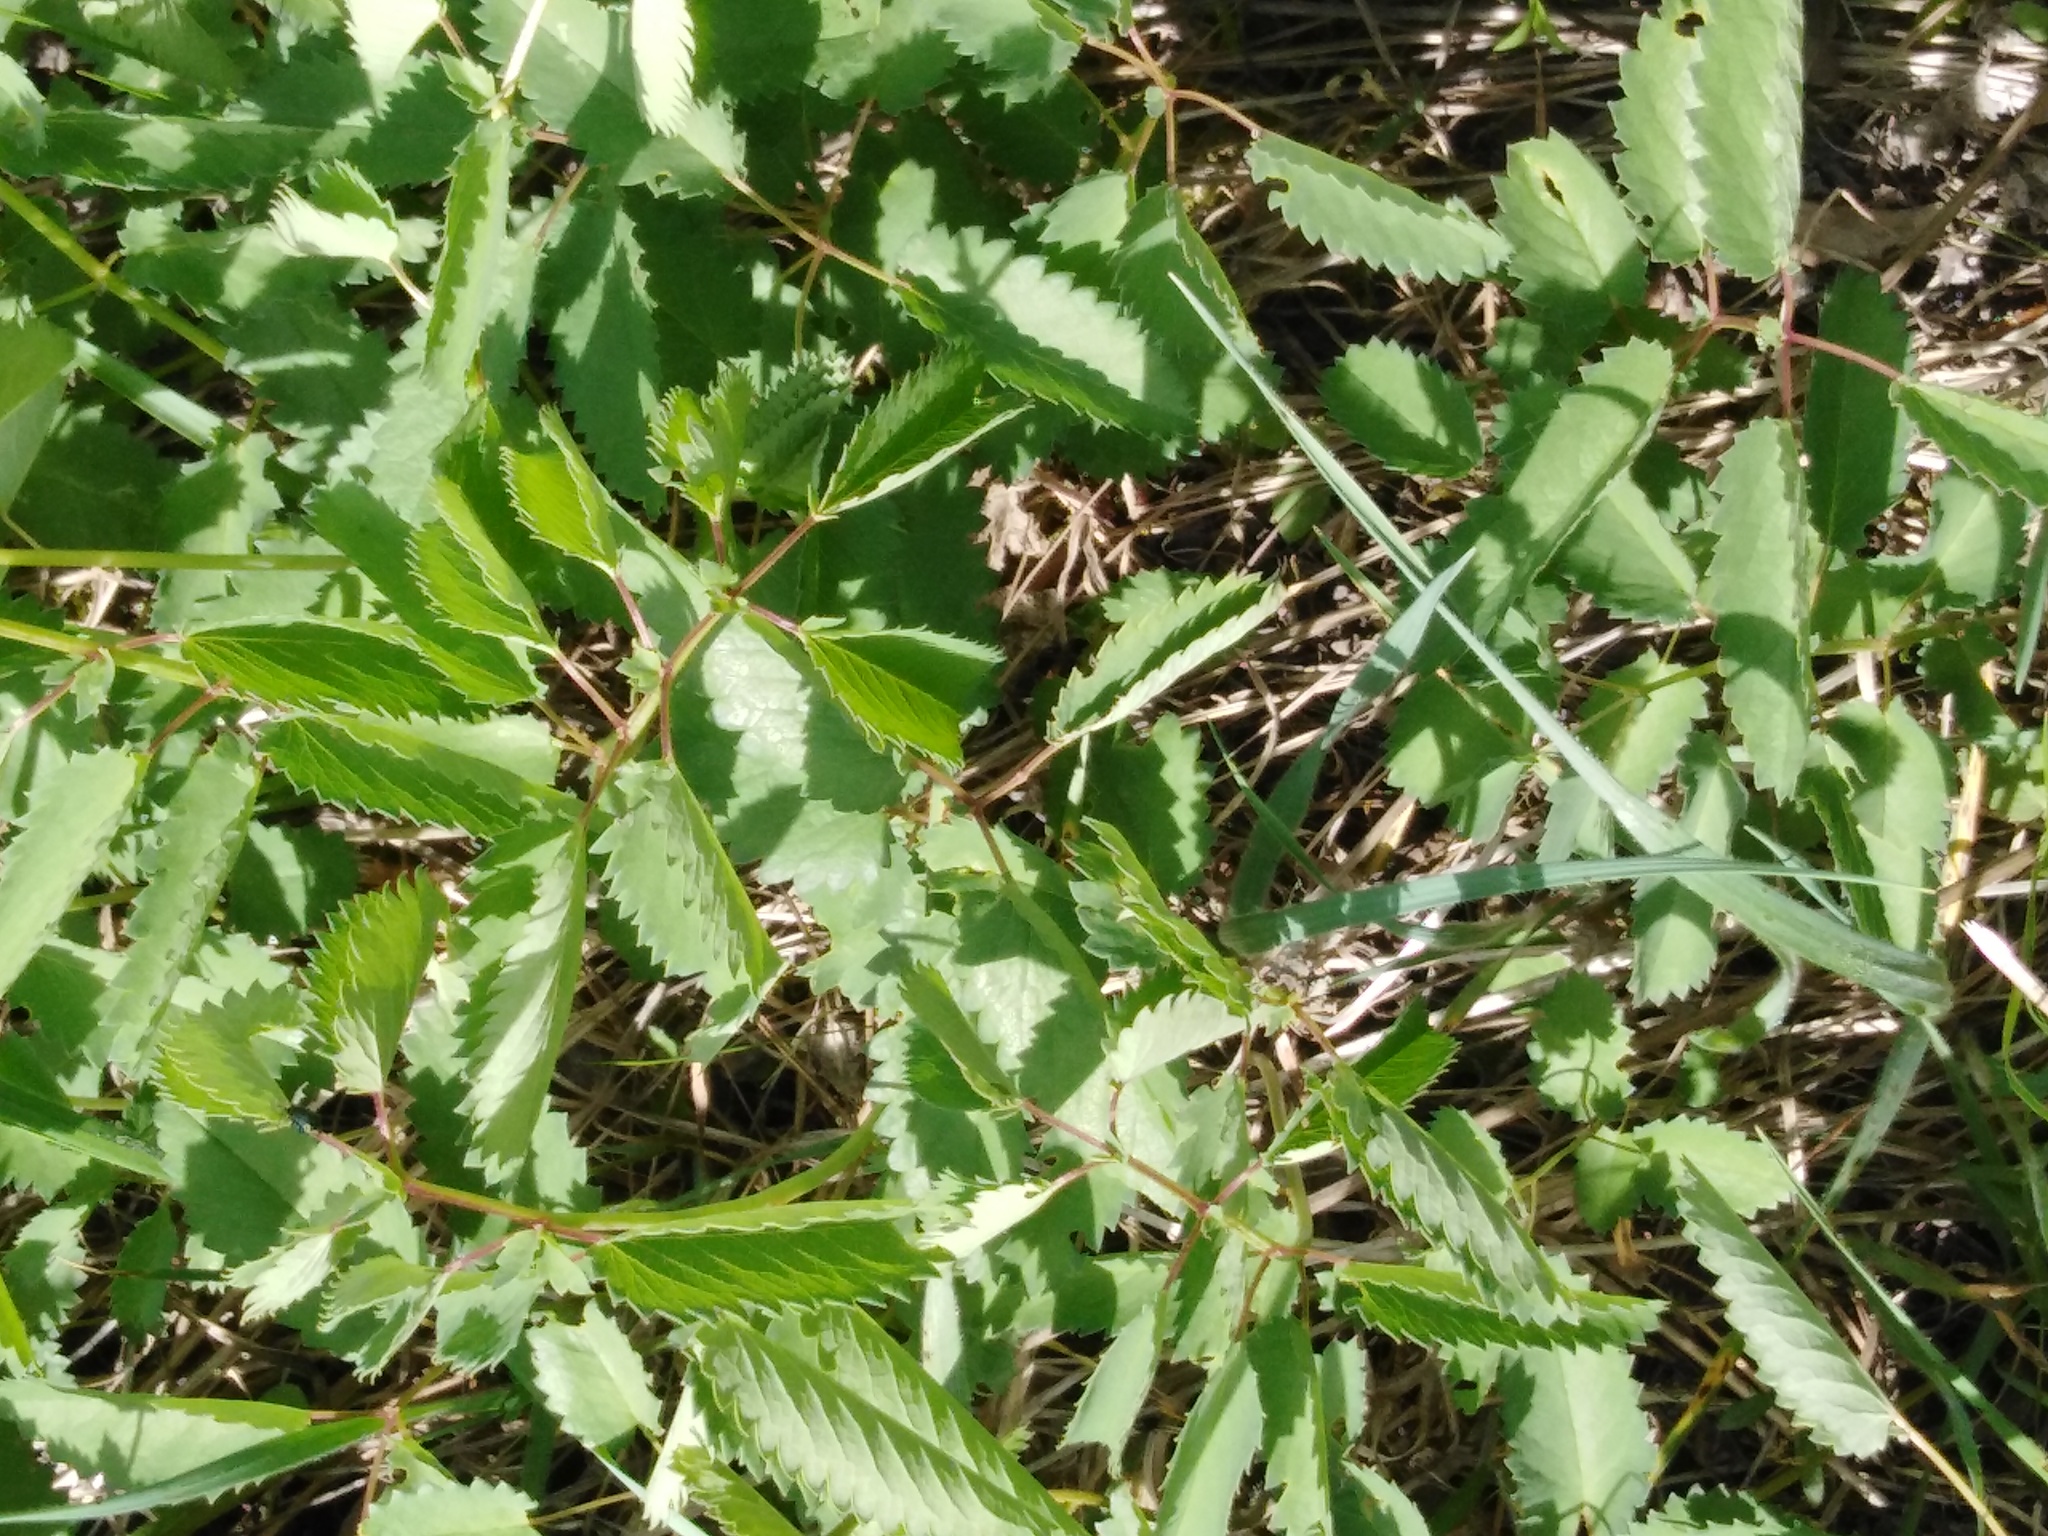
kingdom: Plantae
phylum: Tracheophyta
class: Magnoliopsida
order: Rosales
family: Rosaceae
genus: Sanguisorba
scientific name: Sanguisorba officinalis
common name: Great burnet
